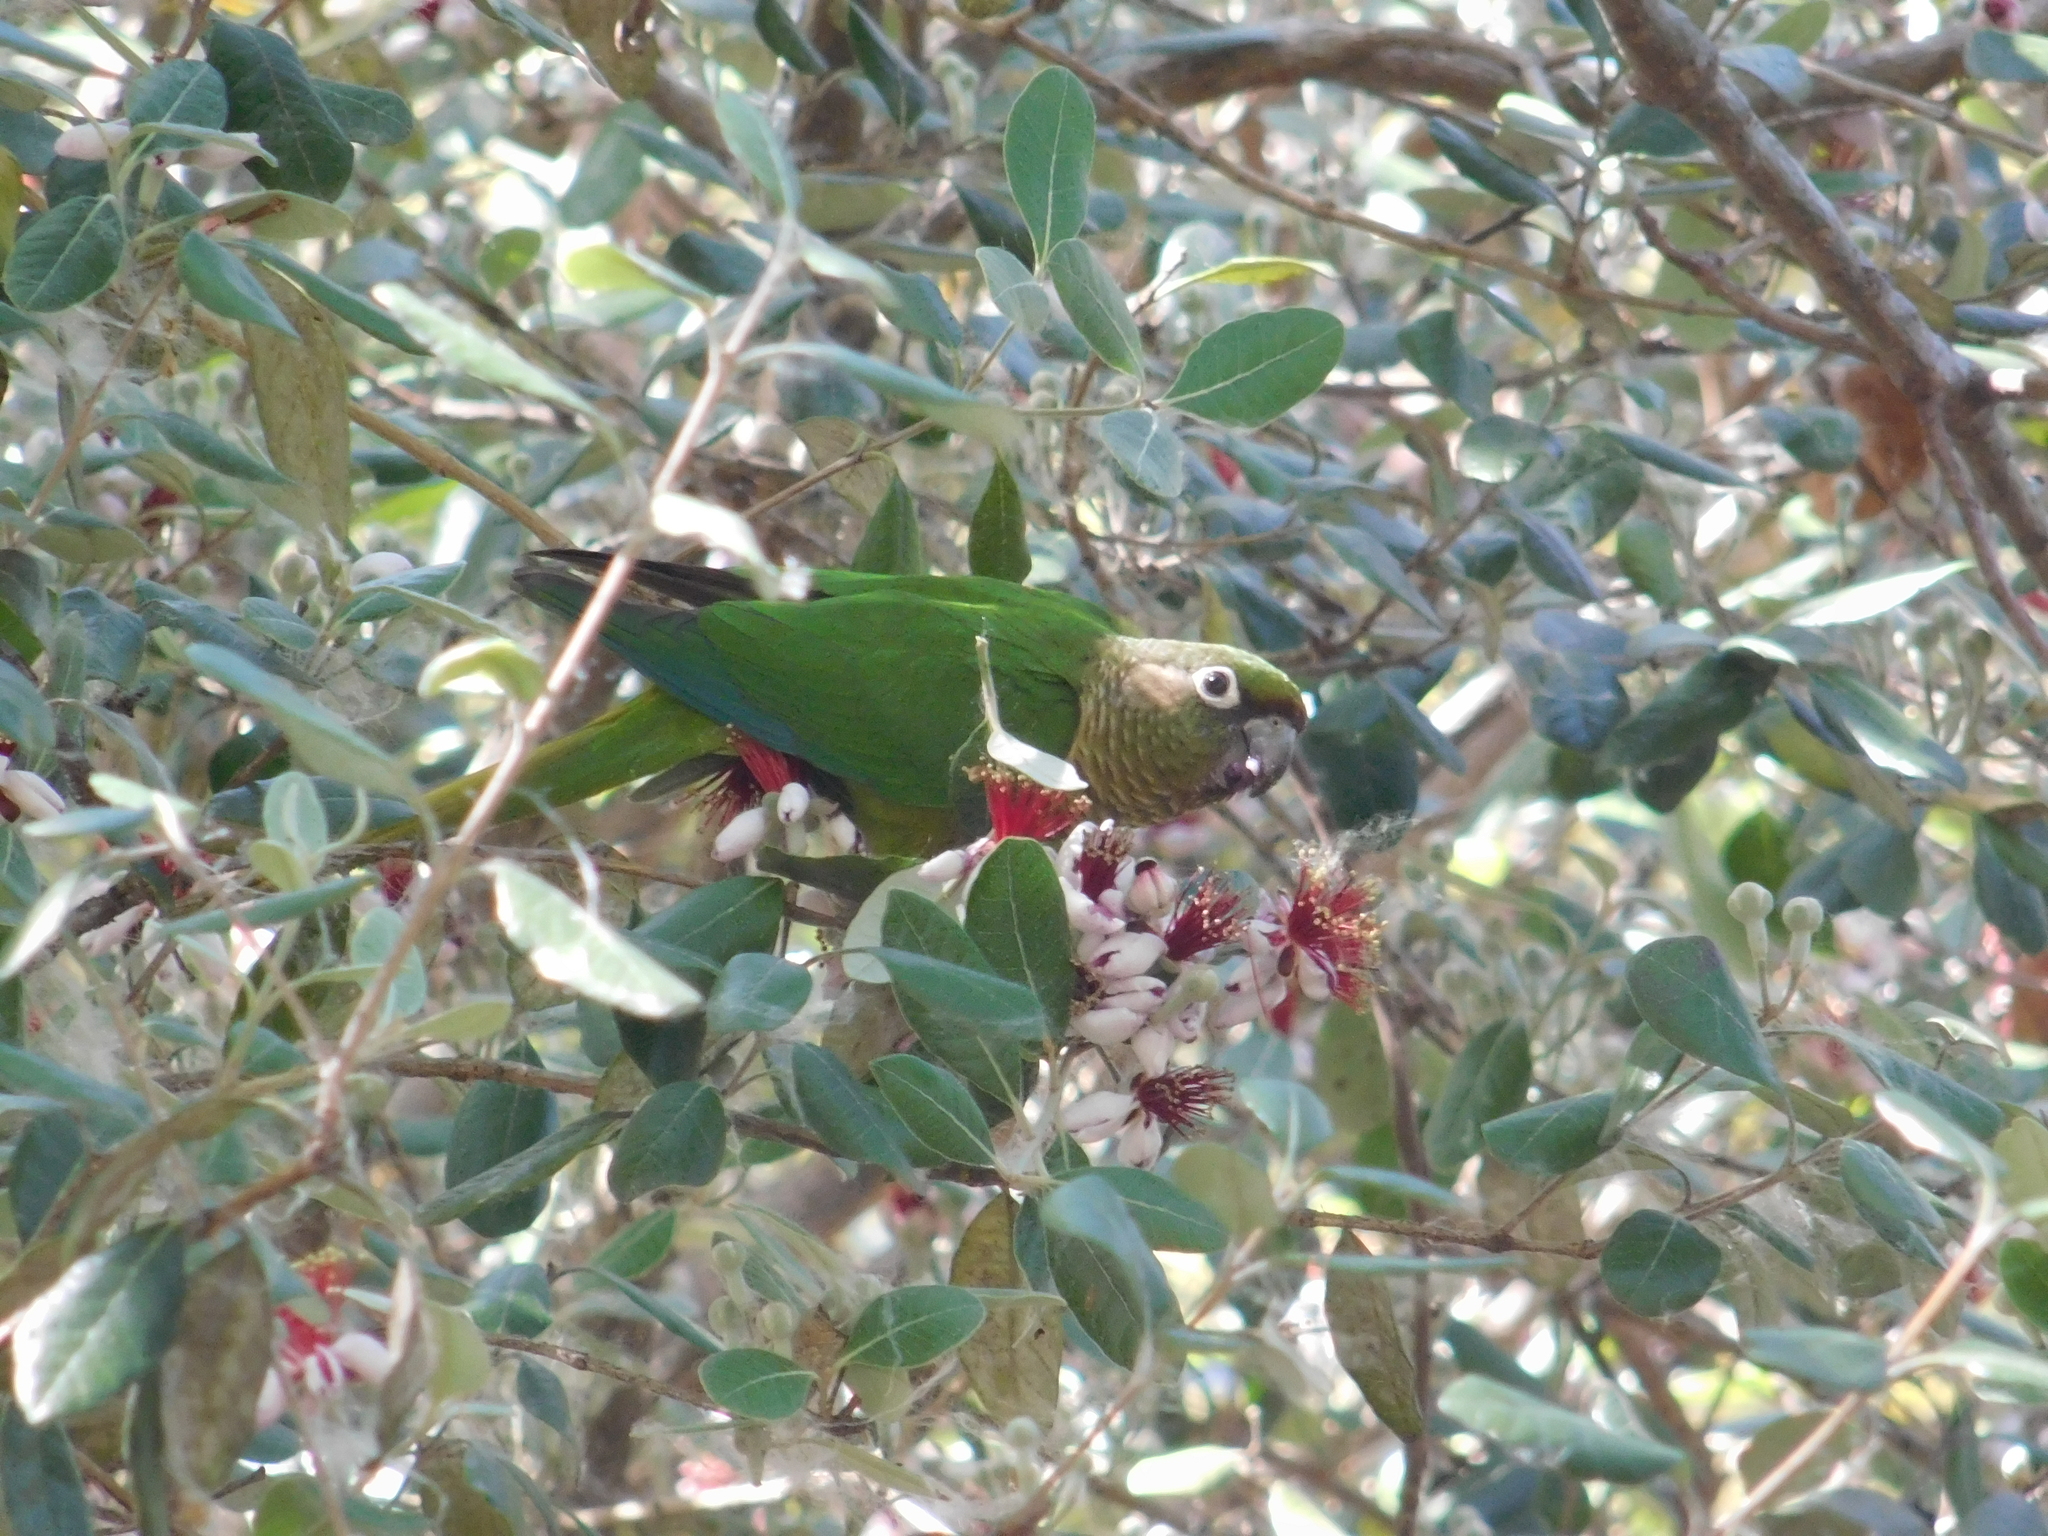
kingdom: Animalia
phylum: Chordata
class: Aves
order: Psittaciformes
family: Psittacidae
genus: Pyrrhura
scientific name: Pyrrhura frontalis
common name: Maroon-bellied parakeet
